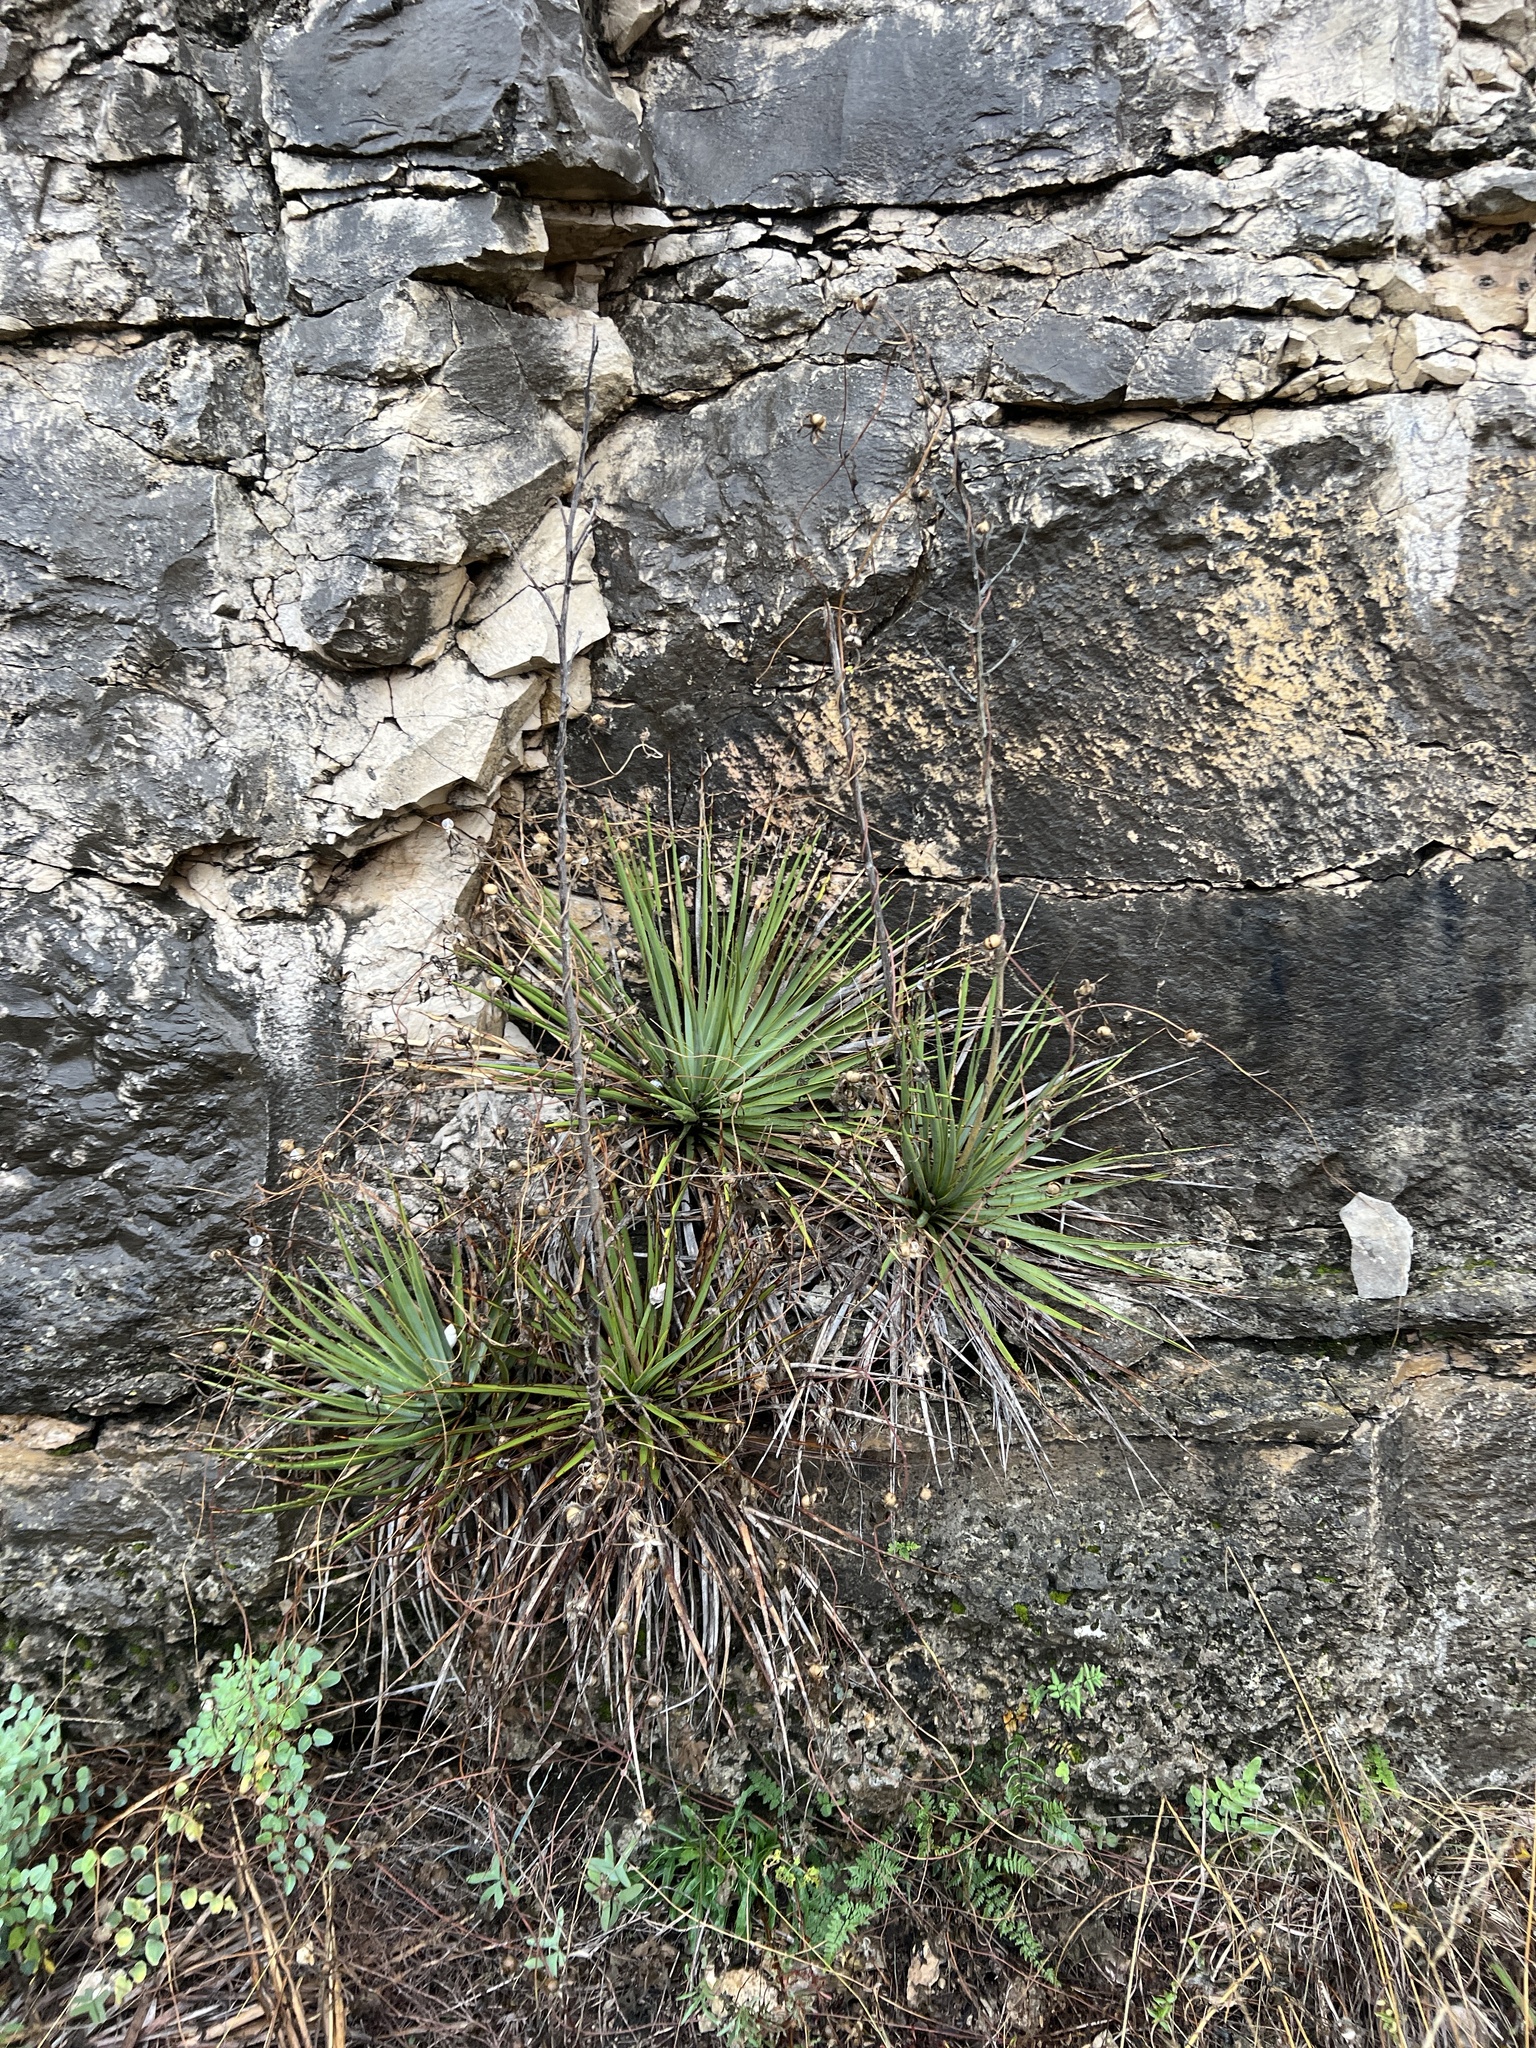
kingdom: Plantae
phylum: Tracheophyta
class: Liliopsida
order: Asparagales
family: Asparagaceae
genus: Yucca
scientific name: Yucca reverchonii
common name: San angelo yucca
